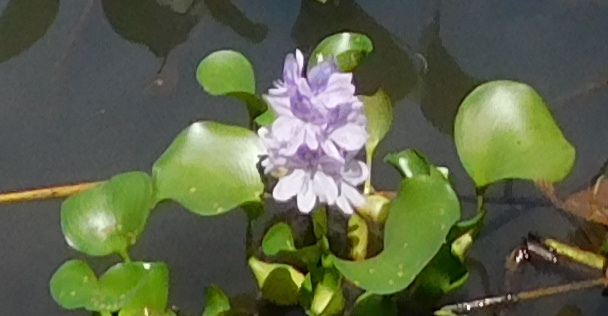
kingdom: Plantae
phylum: Tracheophyta
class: Liliopsida
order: Commelinales
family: Pontederiaceae
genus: Pontederia
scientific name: Pontederia crassipes
